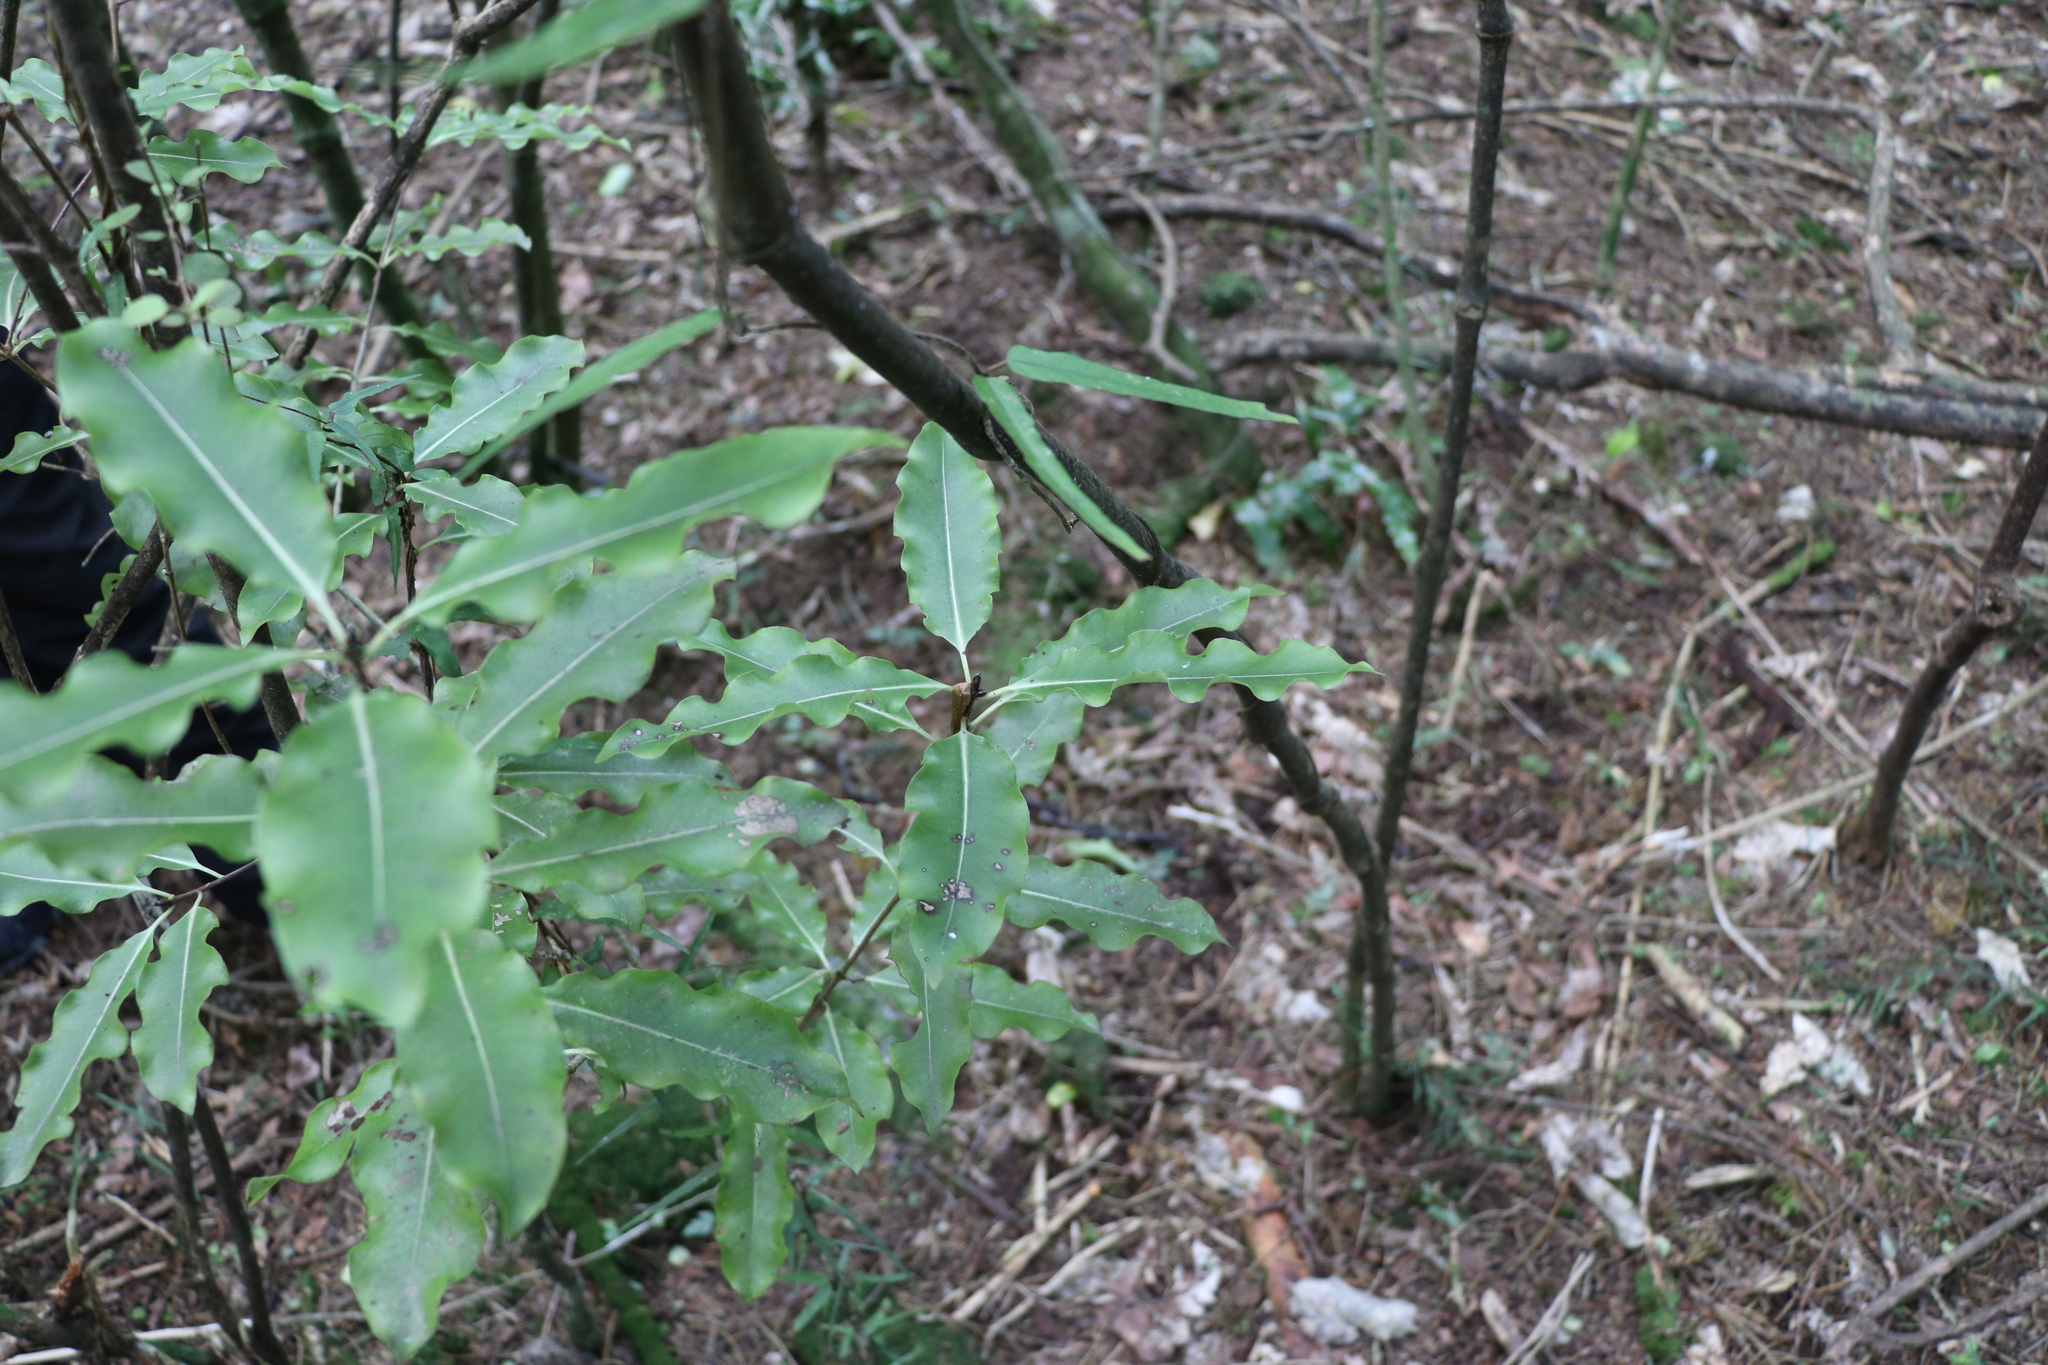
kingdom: Plantae
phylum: Tracheophyta
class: Magnoliopsida
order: Apiales
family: Pittosporaceae
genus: Pittosporum
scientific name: Pittosporum eugenioides
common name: Lemonwood
